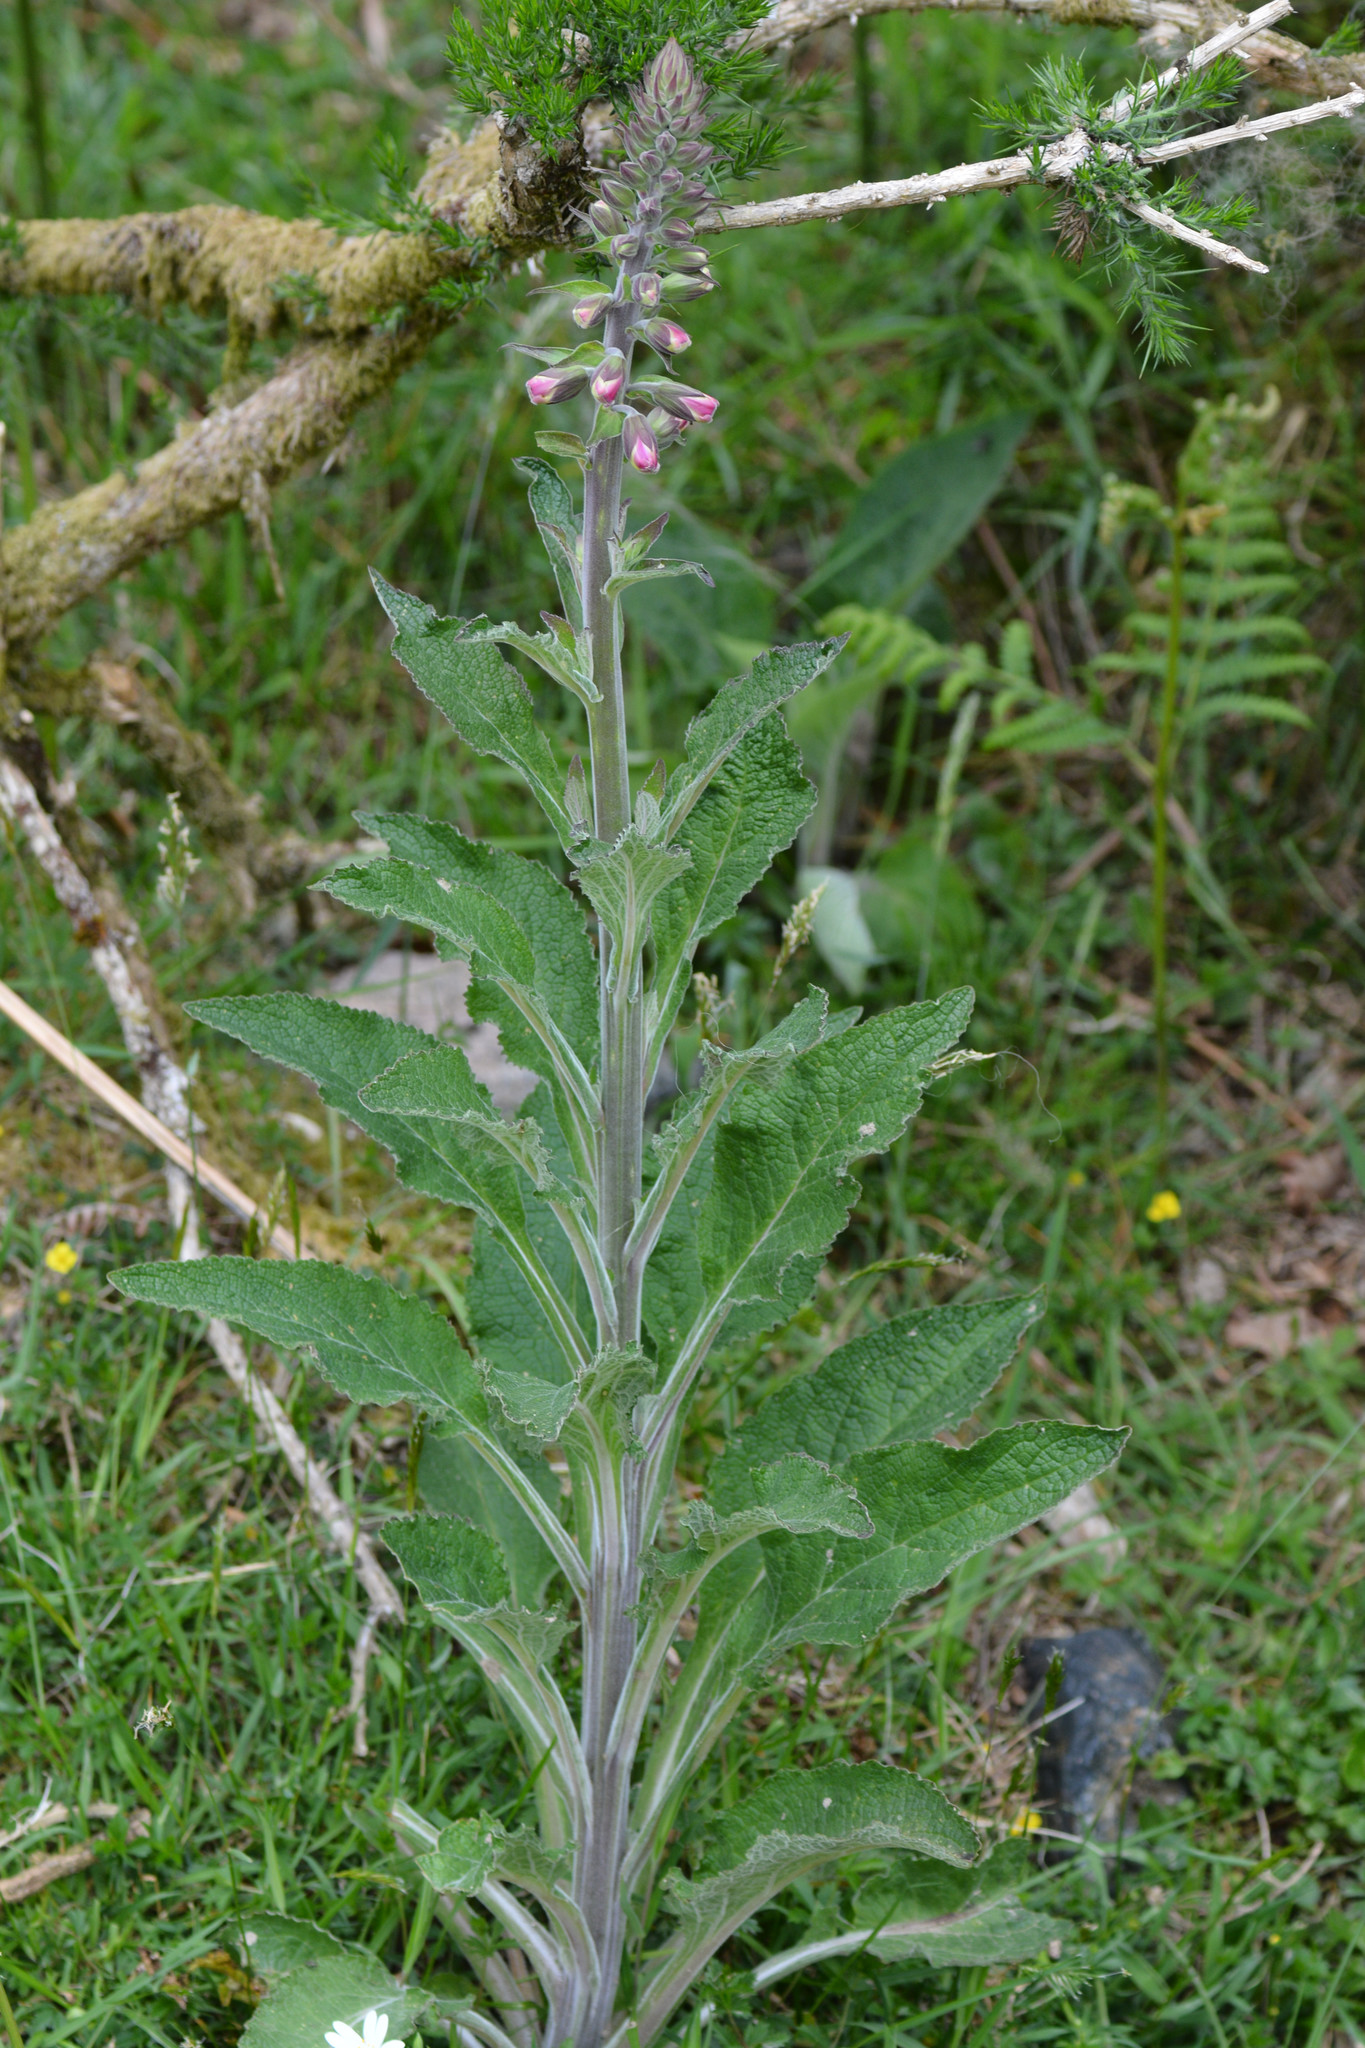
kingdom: Plantae
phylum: Tracheophyta
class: Magnoliopsida
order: Lamiales
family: Plantaginaceae
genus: Digitalis
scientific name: Digitalis purpurea
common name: Foxglove
